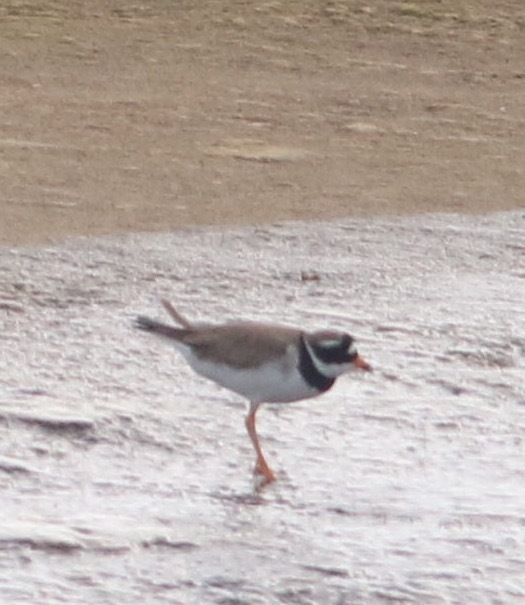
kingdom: Animalia
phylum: Chordata
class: Aves
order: Charadriiformes
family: Charadriidae
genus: Charadrius
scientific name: Charadrius hiaticula
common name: Common ringed plover
